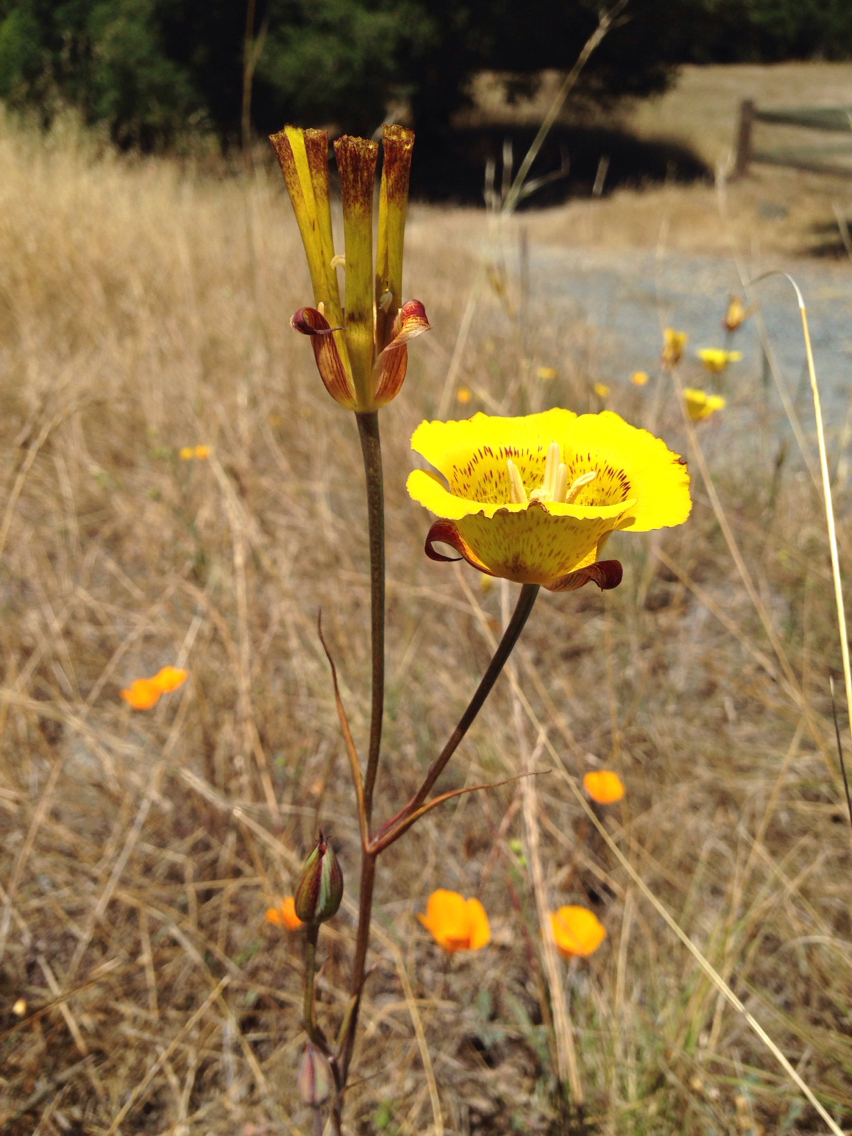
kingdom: Plantae
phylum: Tracheophyta
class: Liliopsida
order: Liliales
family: Liliaceae
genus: Calochortus
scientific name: Calochortus luteus
